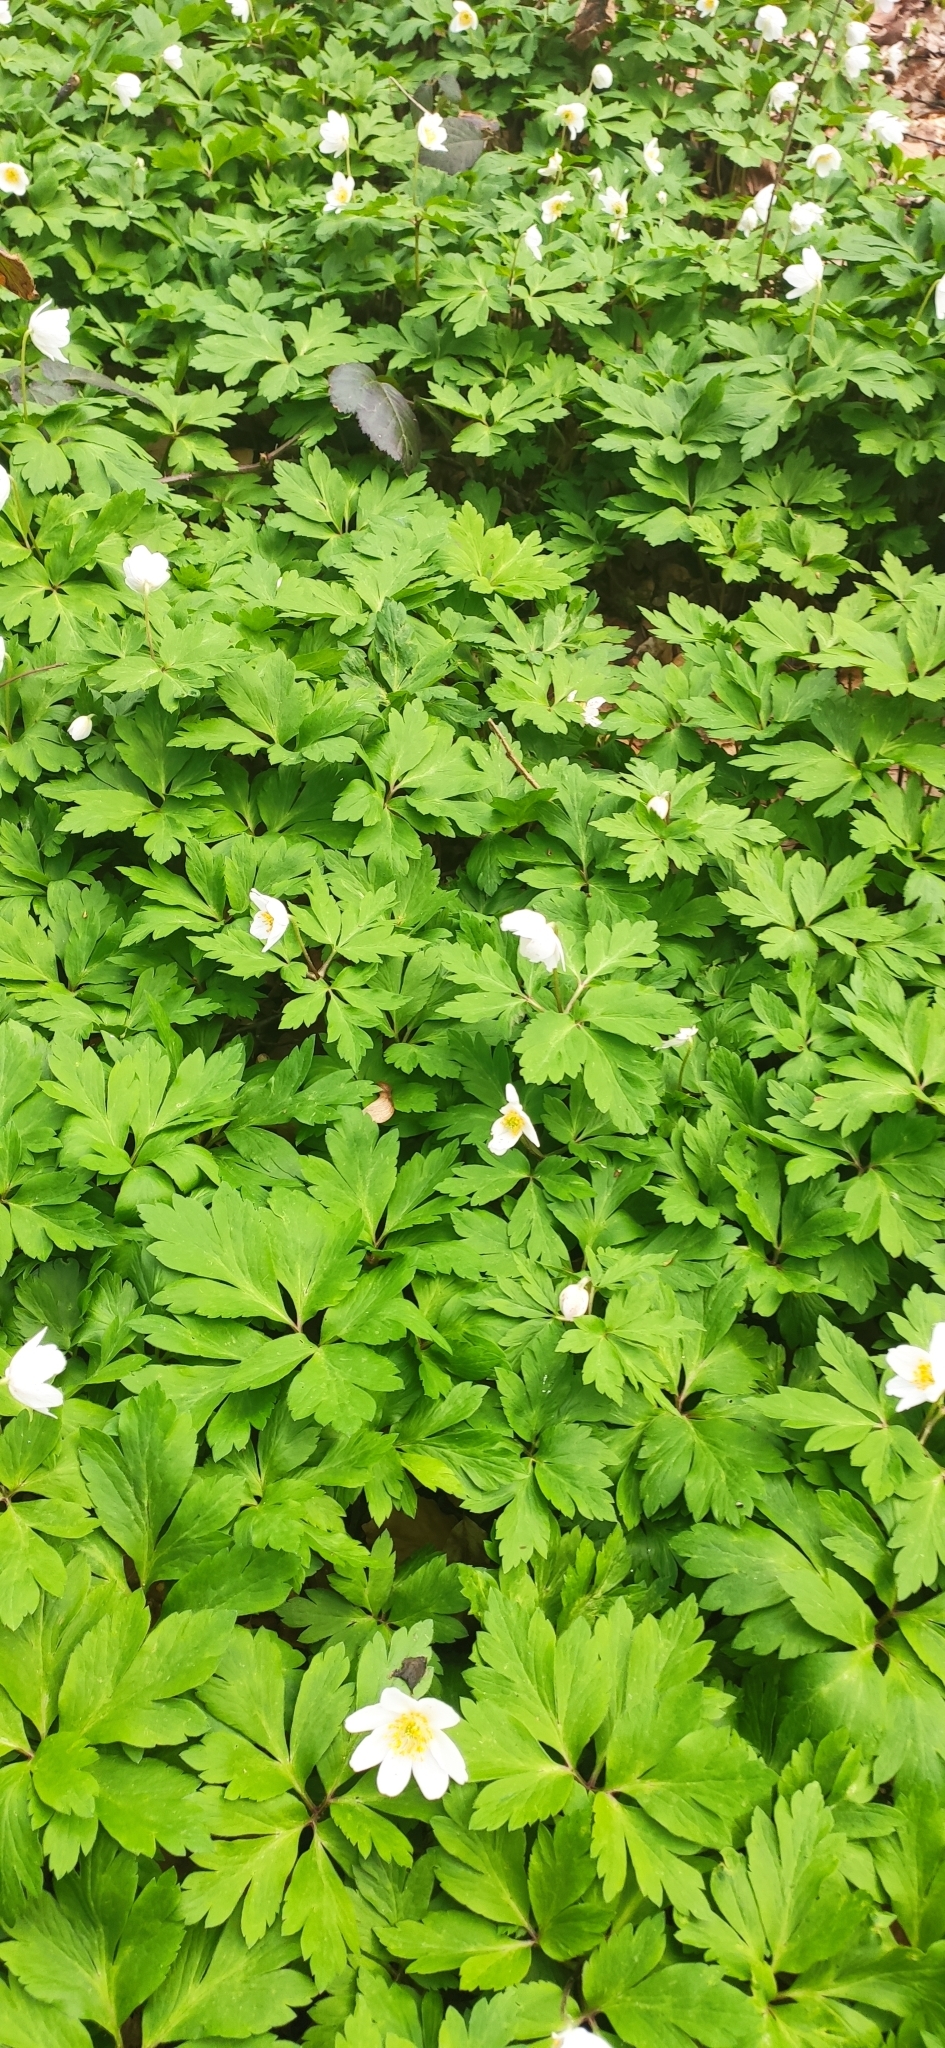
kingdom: Plantae
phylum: Tracheophyta
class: Magnoliopsida
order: Ranunculales
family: Ranunculaceae
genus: Anemone
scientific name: Anemone nemorosa
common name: Wood anemone
